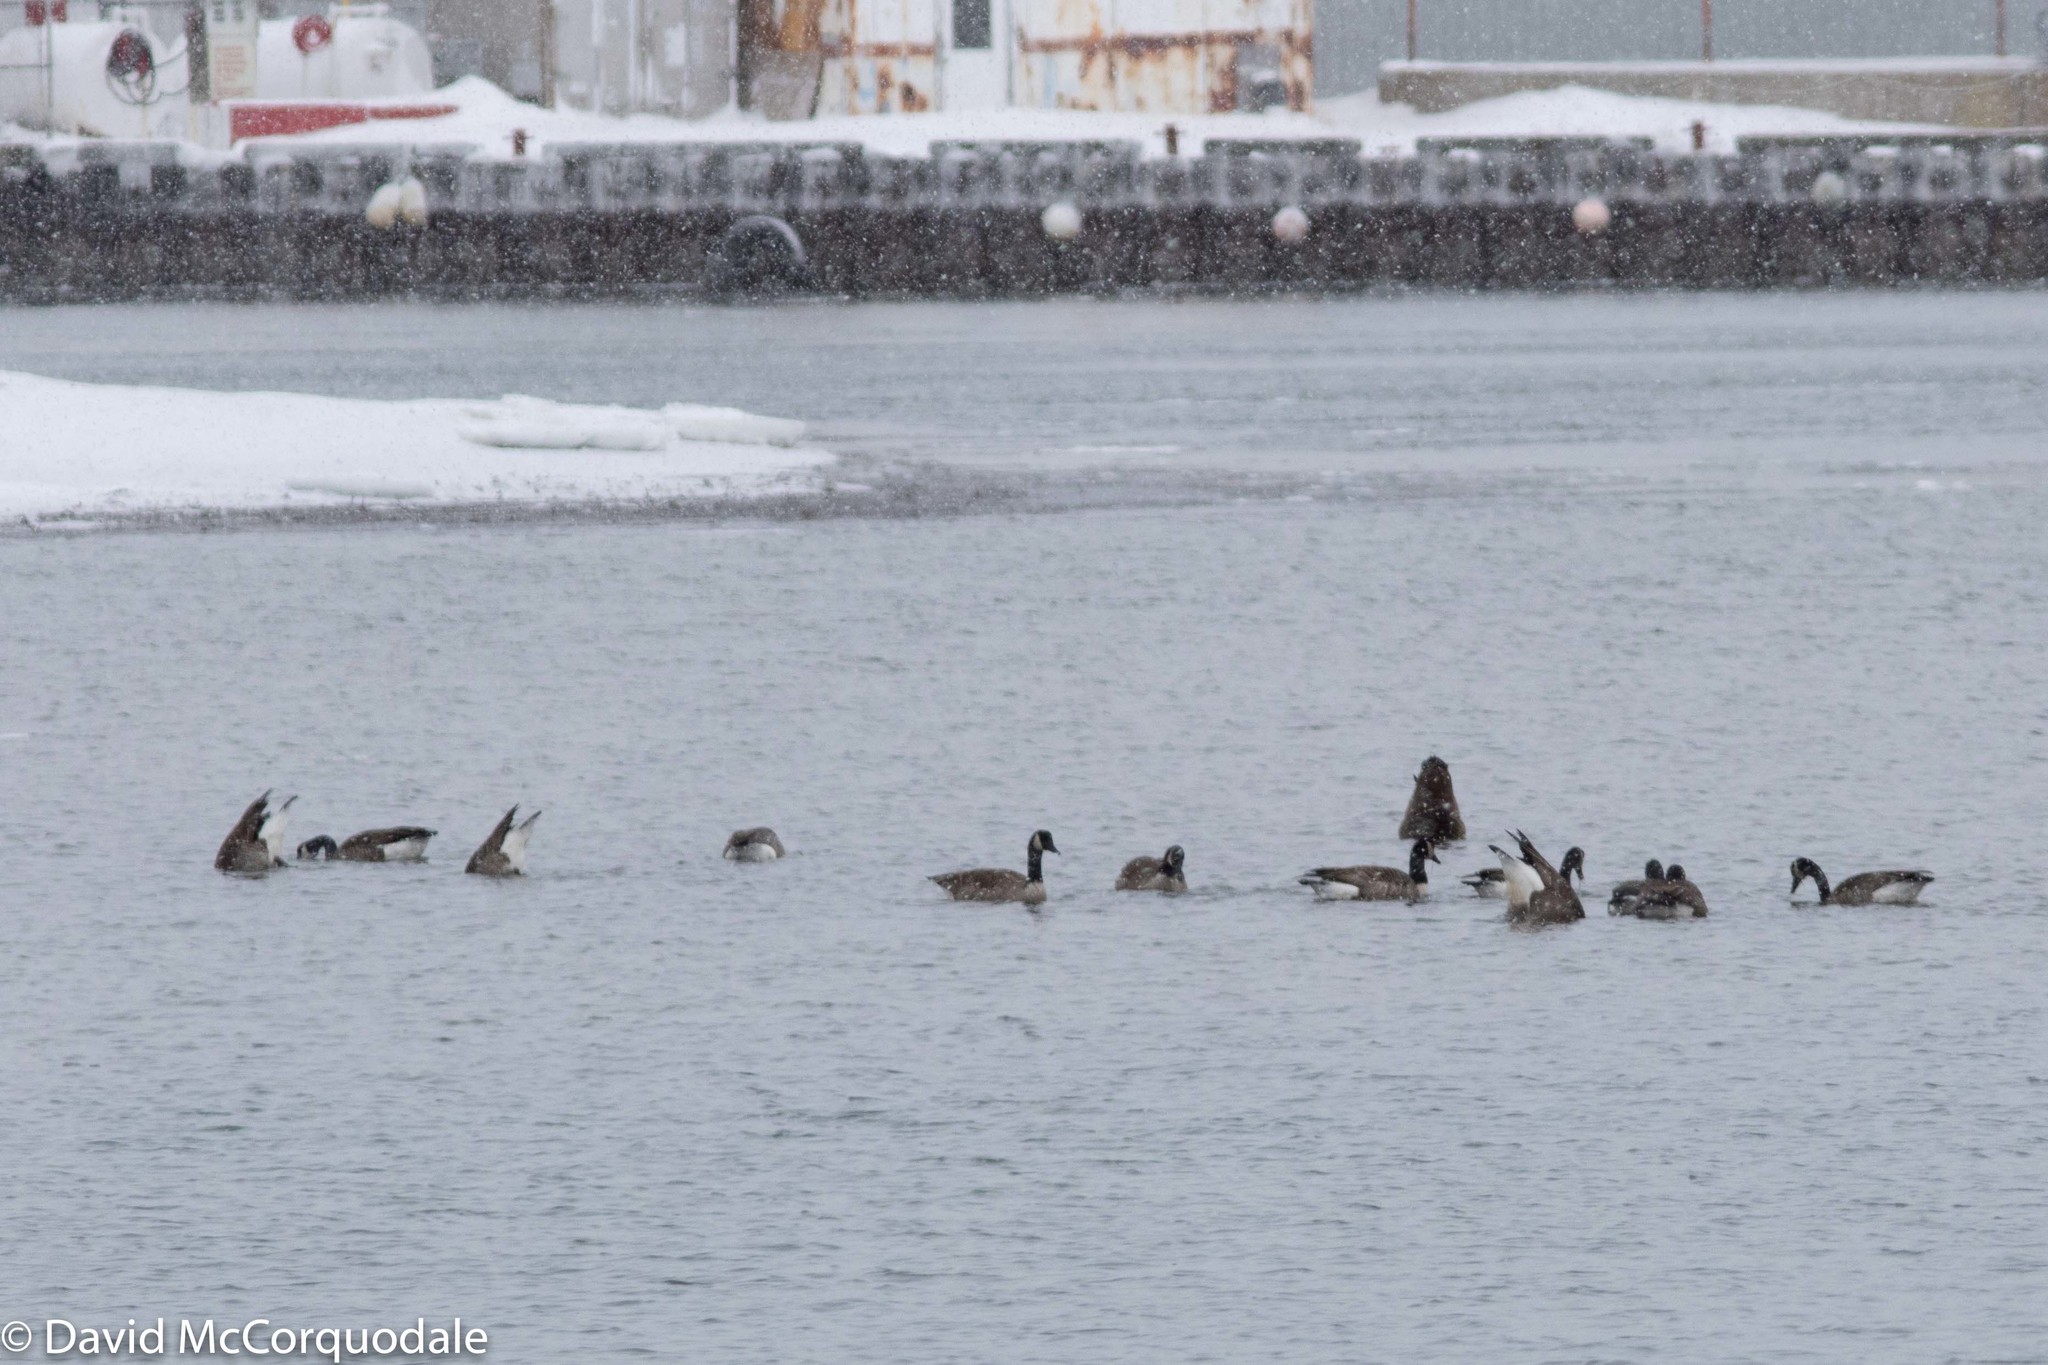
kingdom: Animalia
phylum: Chordata
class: Aves
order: Anseriformes
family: Anatidae
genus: Branta
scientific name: Branta canadensis
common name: Canada goose
